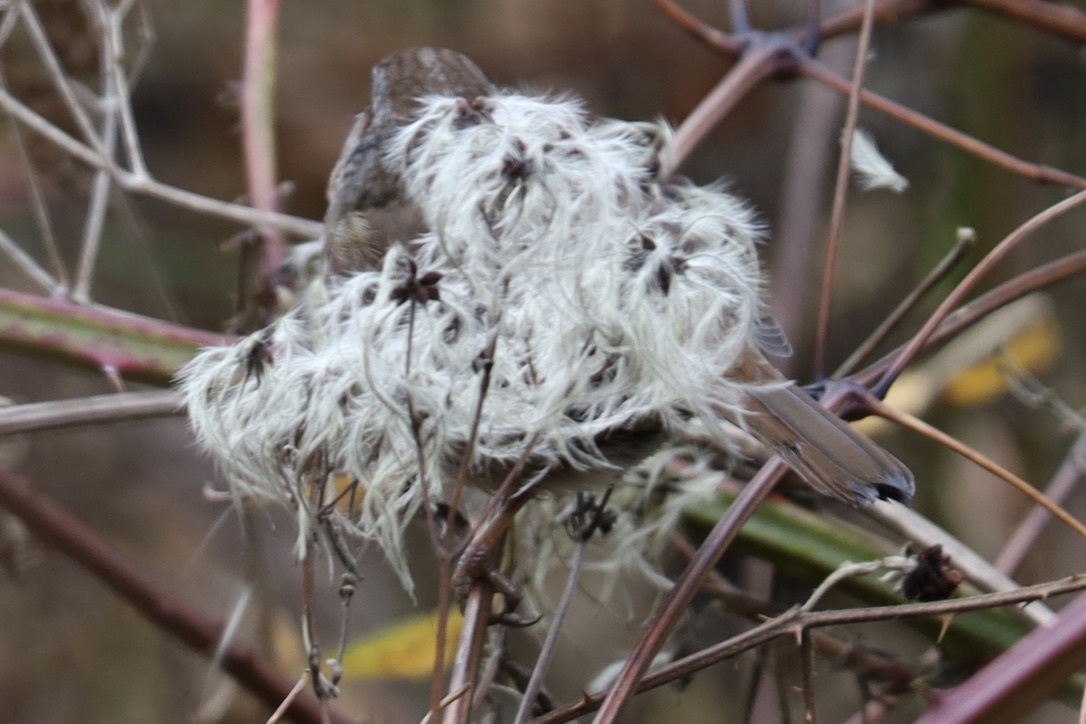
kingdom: Animalia
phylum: Chordata
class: Aves
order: Passeriformes
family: Passerellidae
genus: Melospiza
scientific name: Melospiza melodia
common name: Song sparrow
